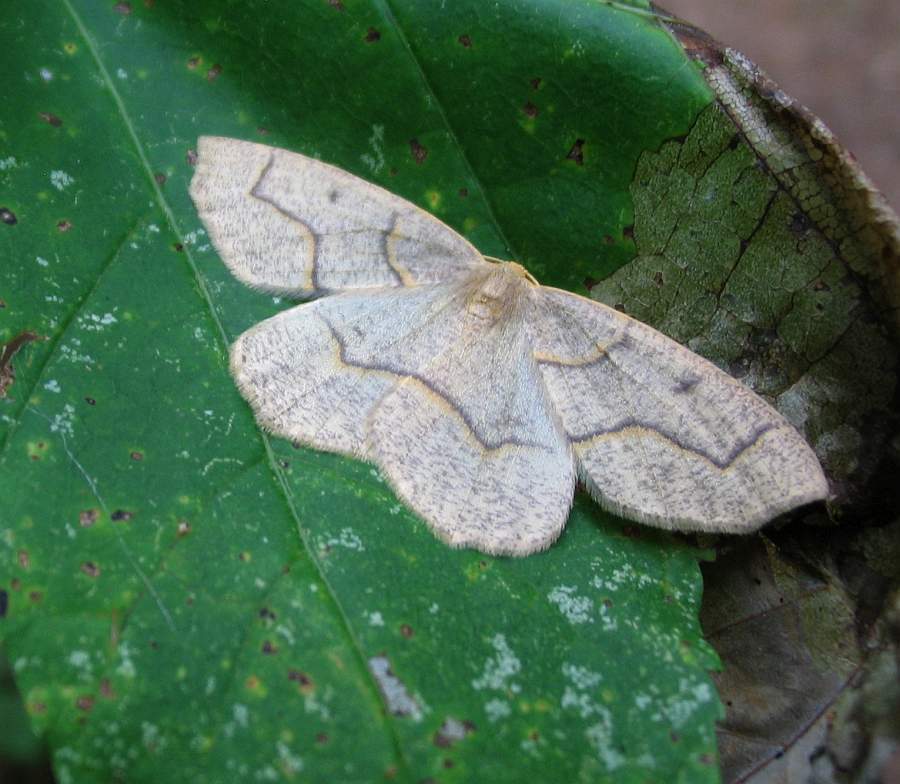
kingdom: Animalia
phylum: Arthropoda
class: Insecta
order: Lepidoptera
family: Geometridae
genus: Lambdina
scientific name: Lambdina fiscellaria
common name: Hemlock looper
